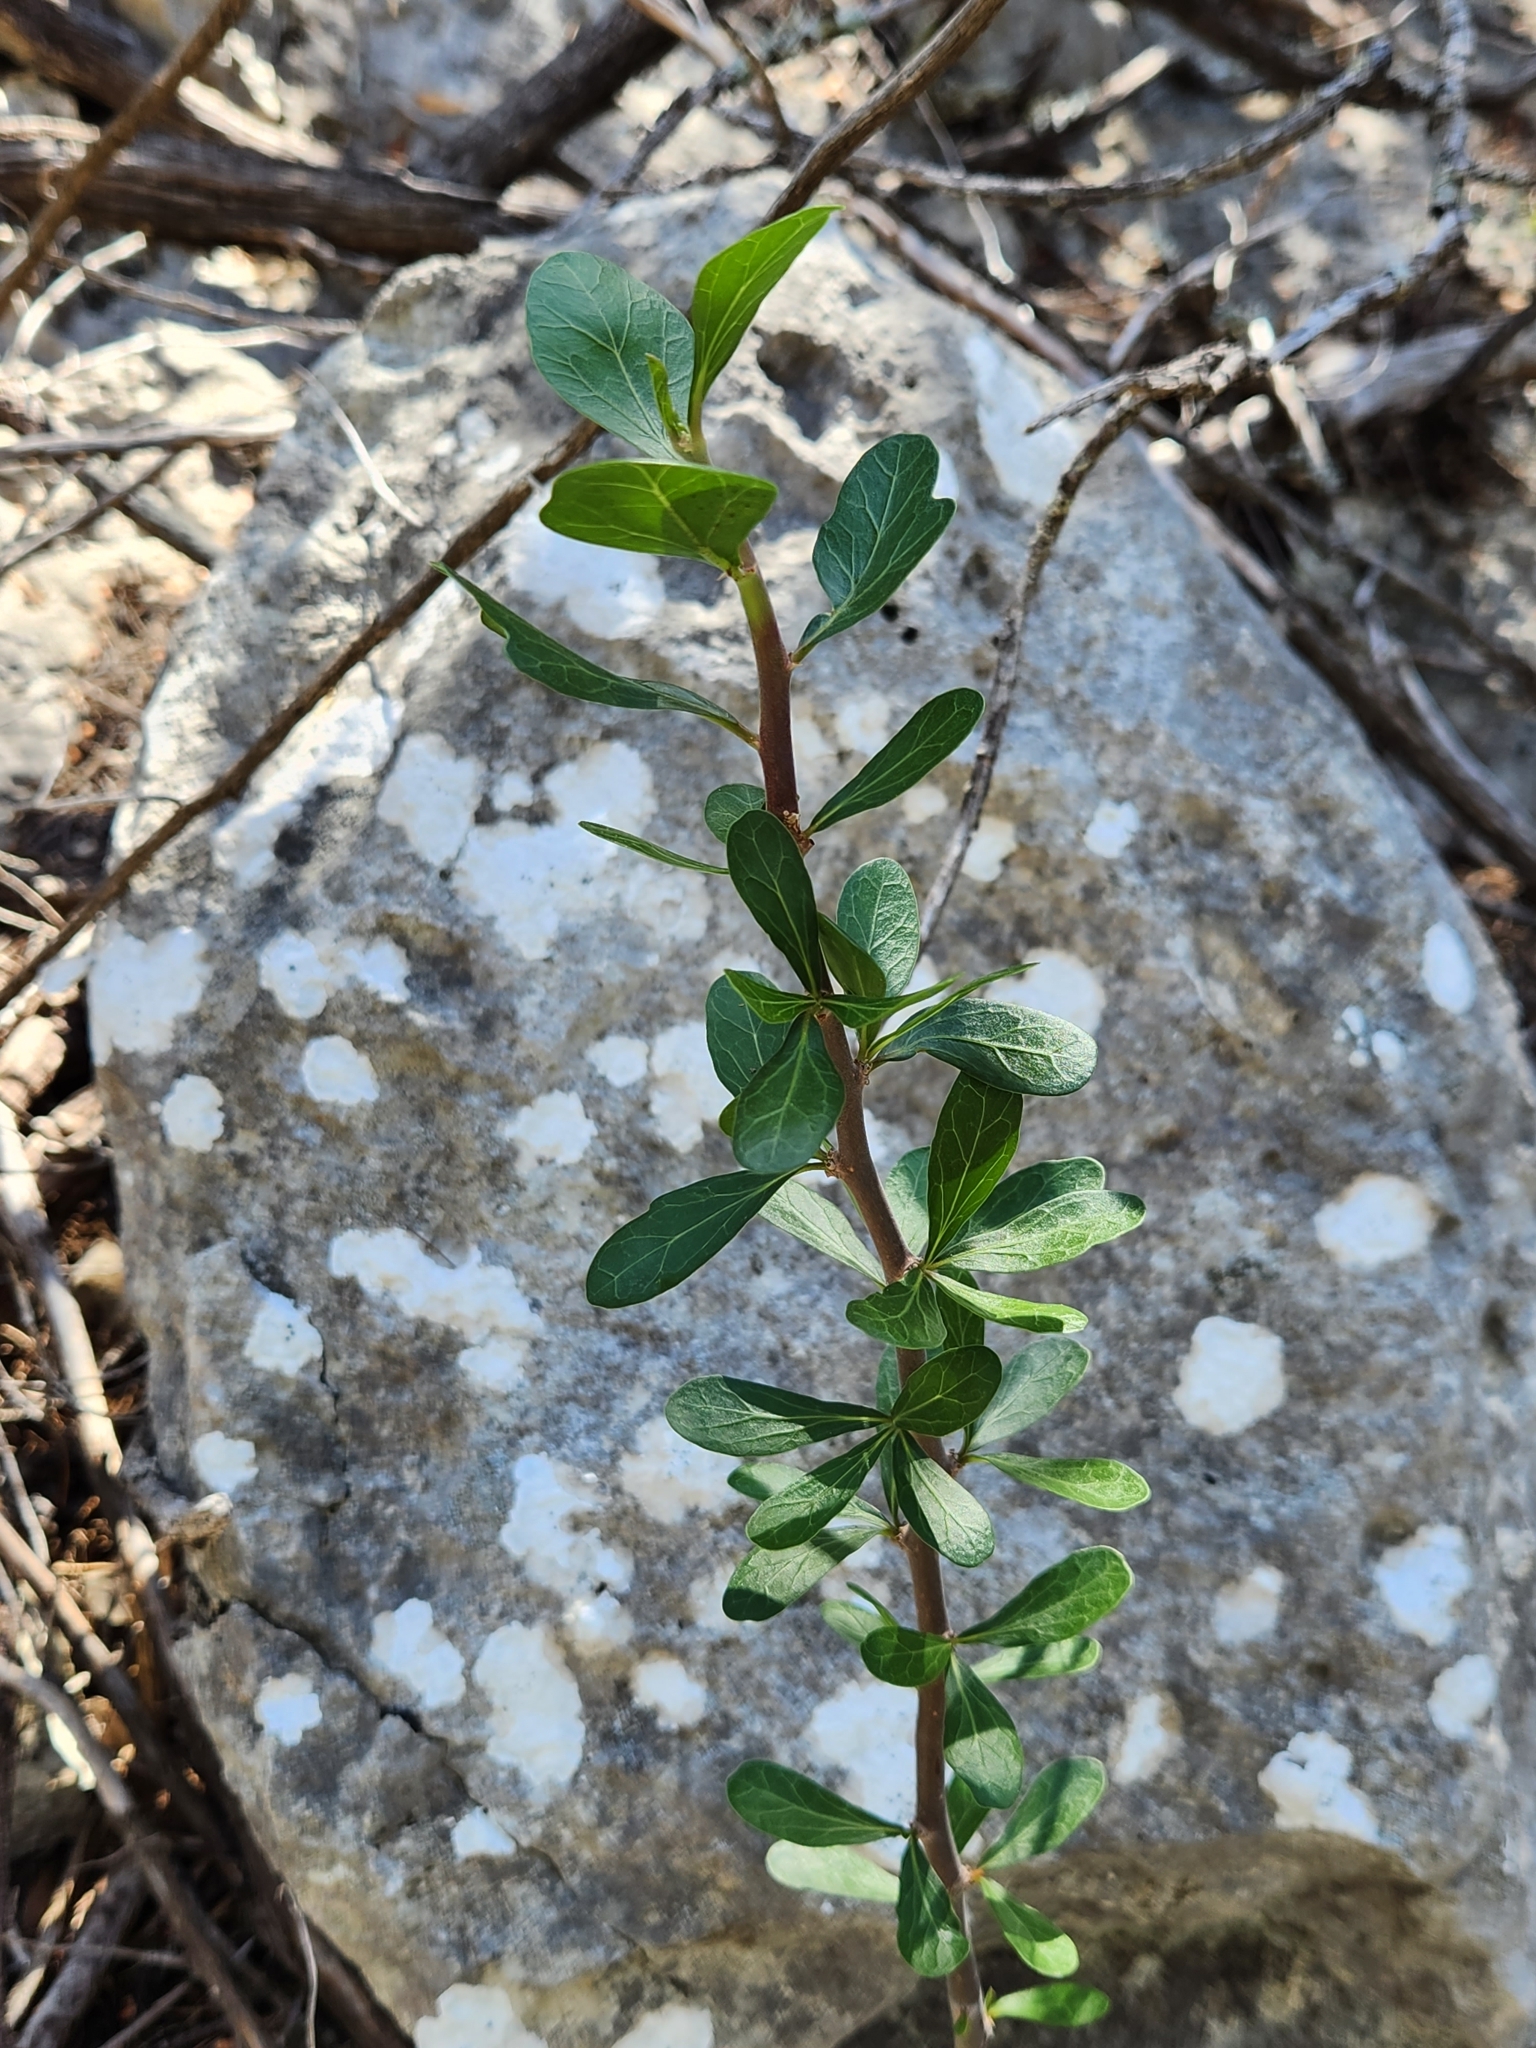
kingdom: Plantae
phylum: Tracheophyta
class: Magnoliopsida
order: Malpighiales
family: Euphorbiaceae
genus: Jatropha
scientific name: Jatropha dioica
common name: Leatherstem
